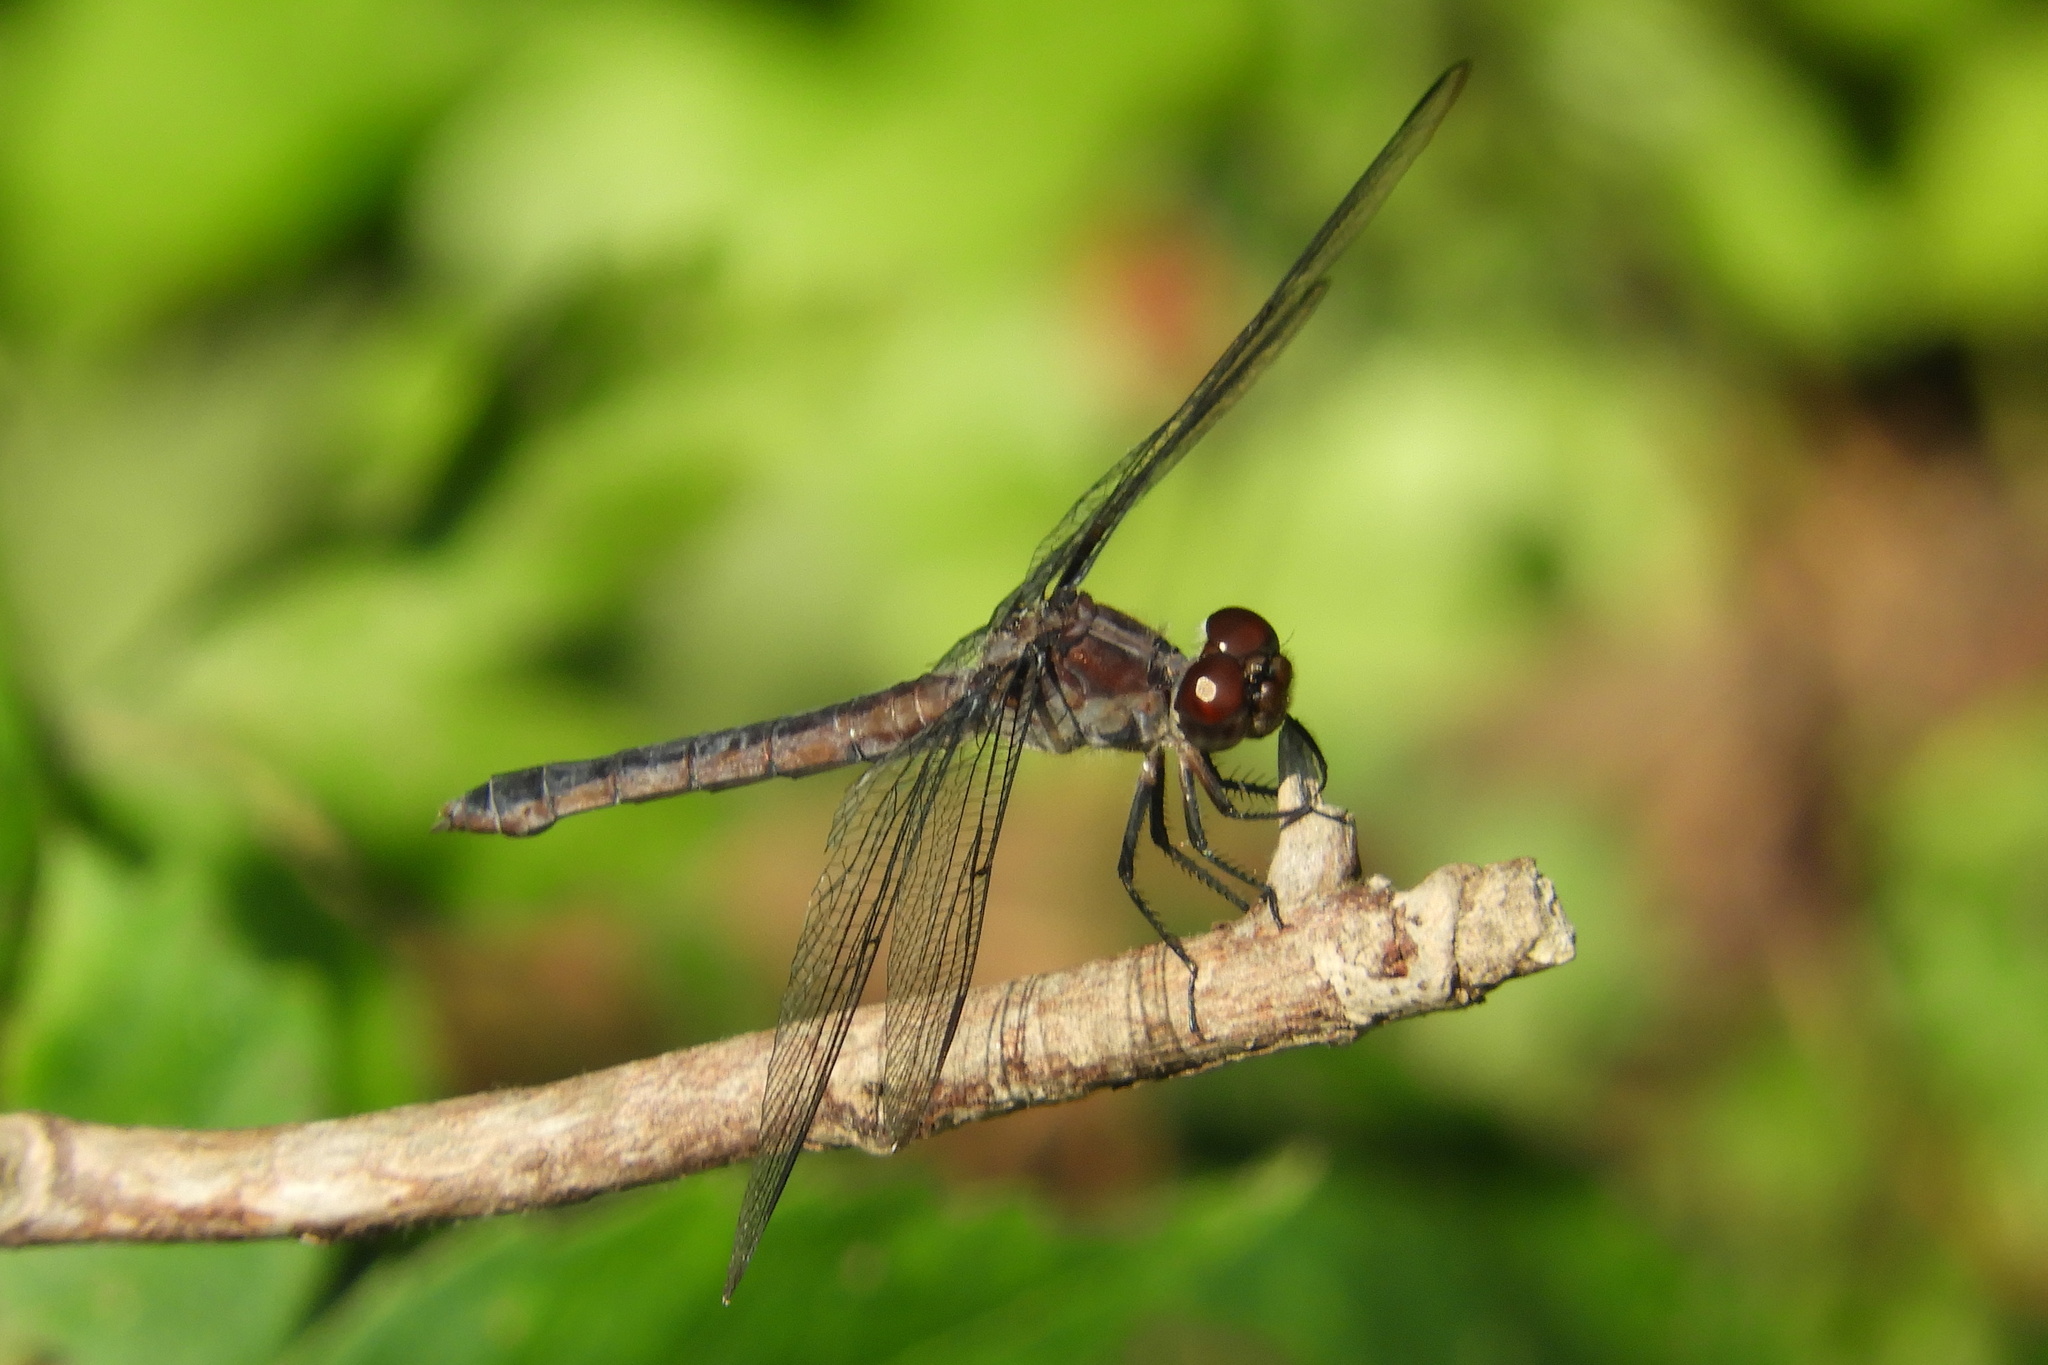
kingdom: Animalia
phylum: Arthropoda
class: Insecta
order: Odonata
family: Libellulidae
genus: Libellula
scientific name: Libellula incesta
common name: Slaty skimmer
